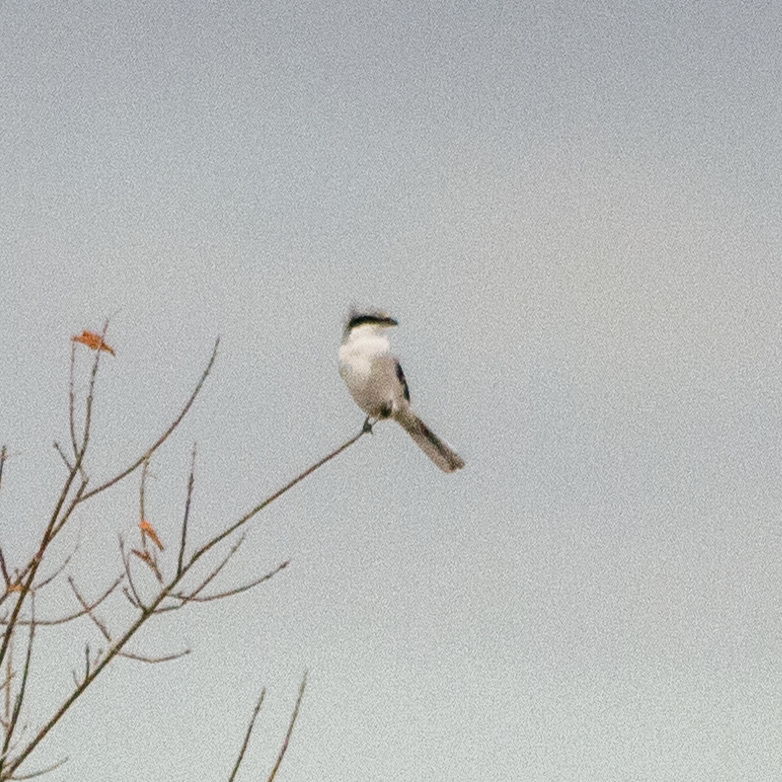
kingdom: Animalia
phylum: Chordata
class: Aves
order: Passeriformes
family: Laniidae
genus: Lanius
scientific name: Lanius excubitor
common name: Great grey shrike
